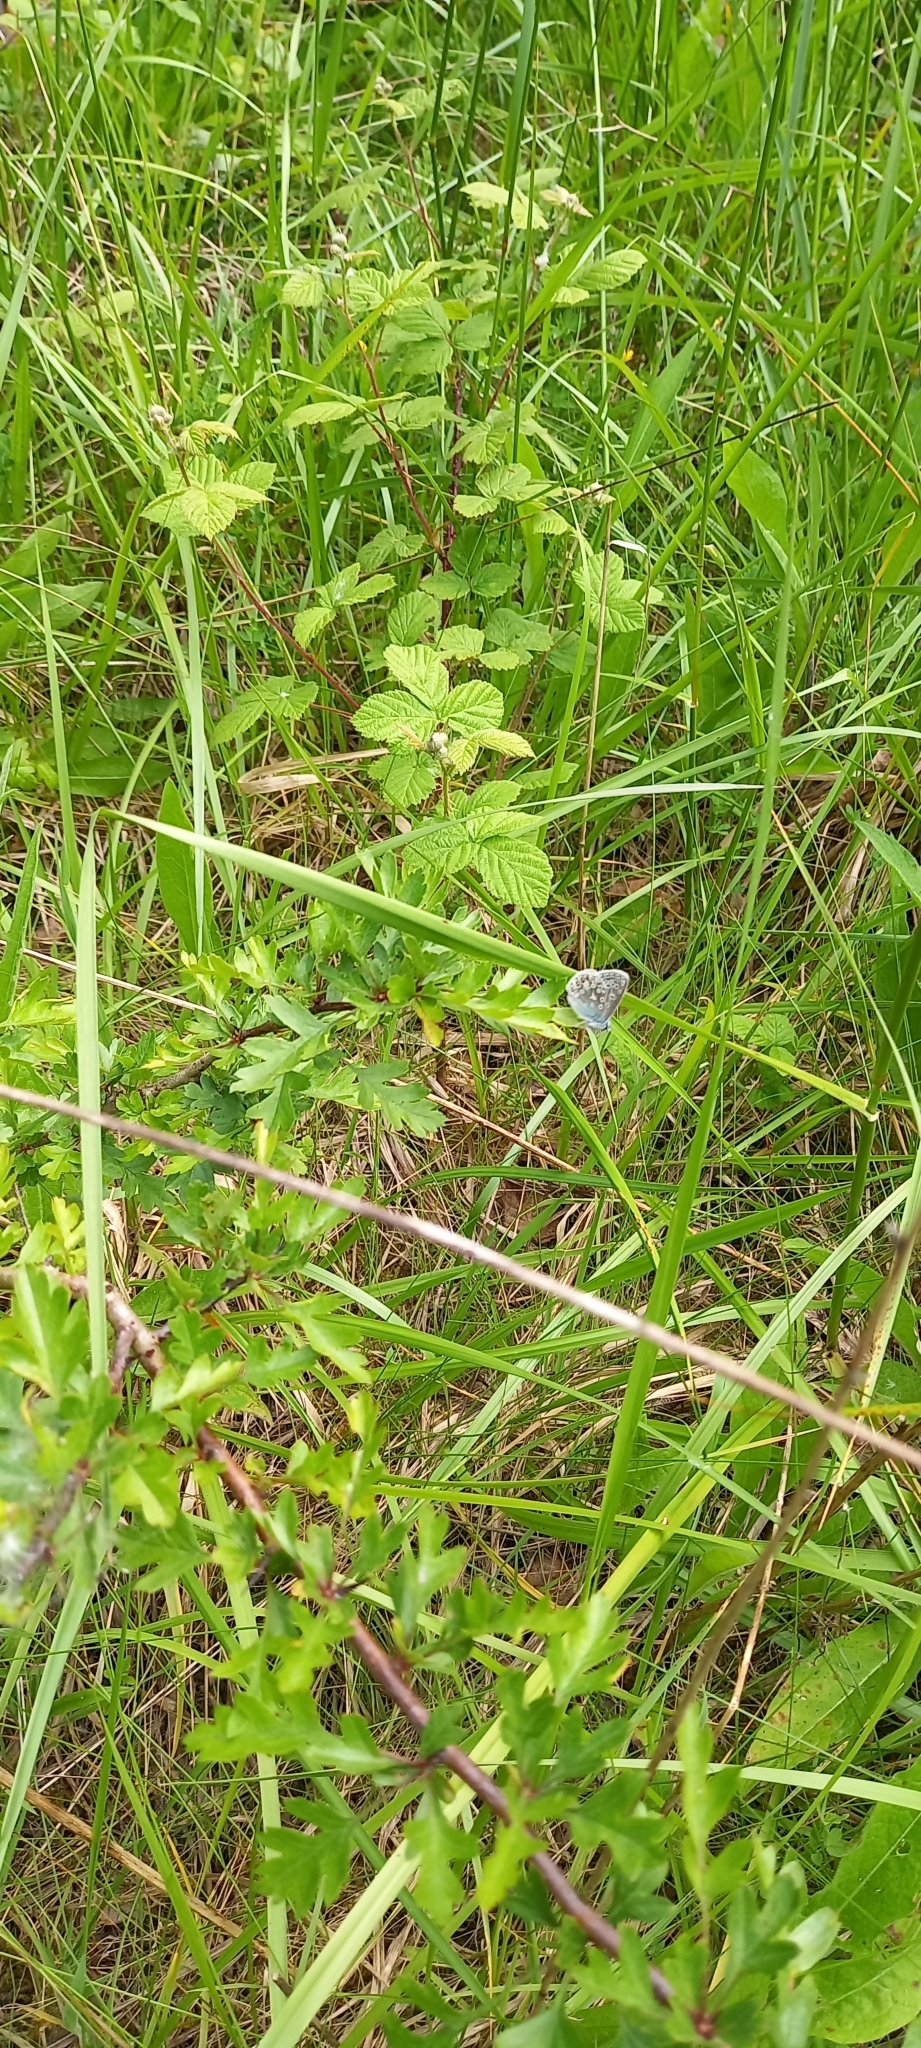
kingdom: Animalia
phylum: Arthropoda
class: Insecta
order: Lepidoptera
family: Lycaenidae
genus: Polyommatus
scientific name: Polyommatus icarus
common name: Common blue
